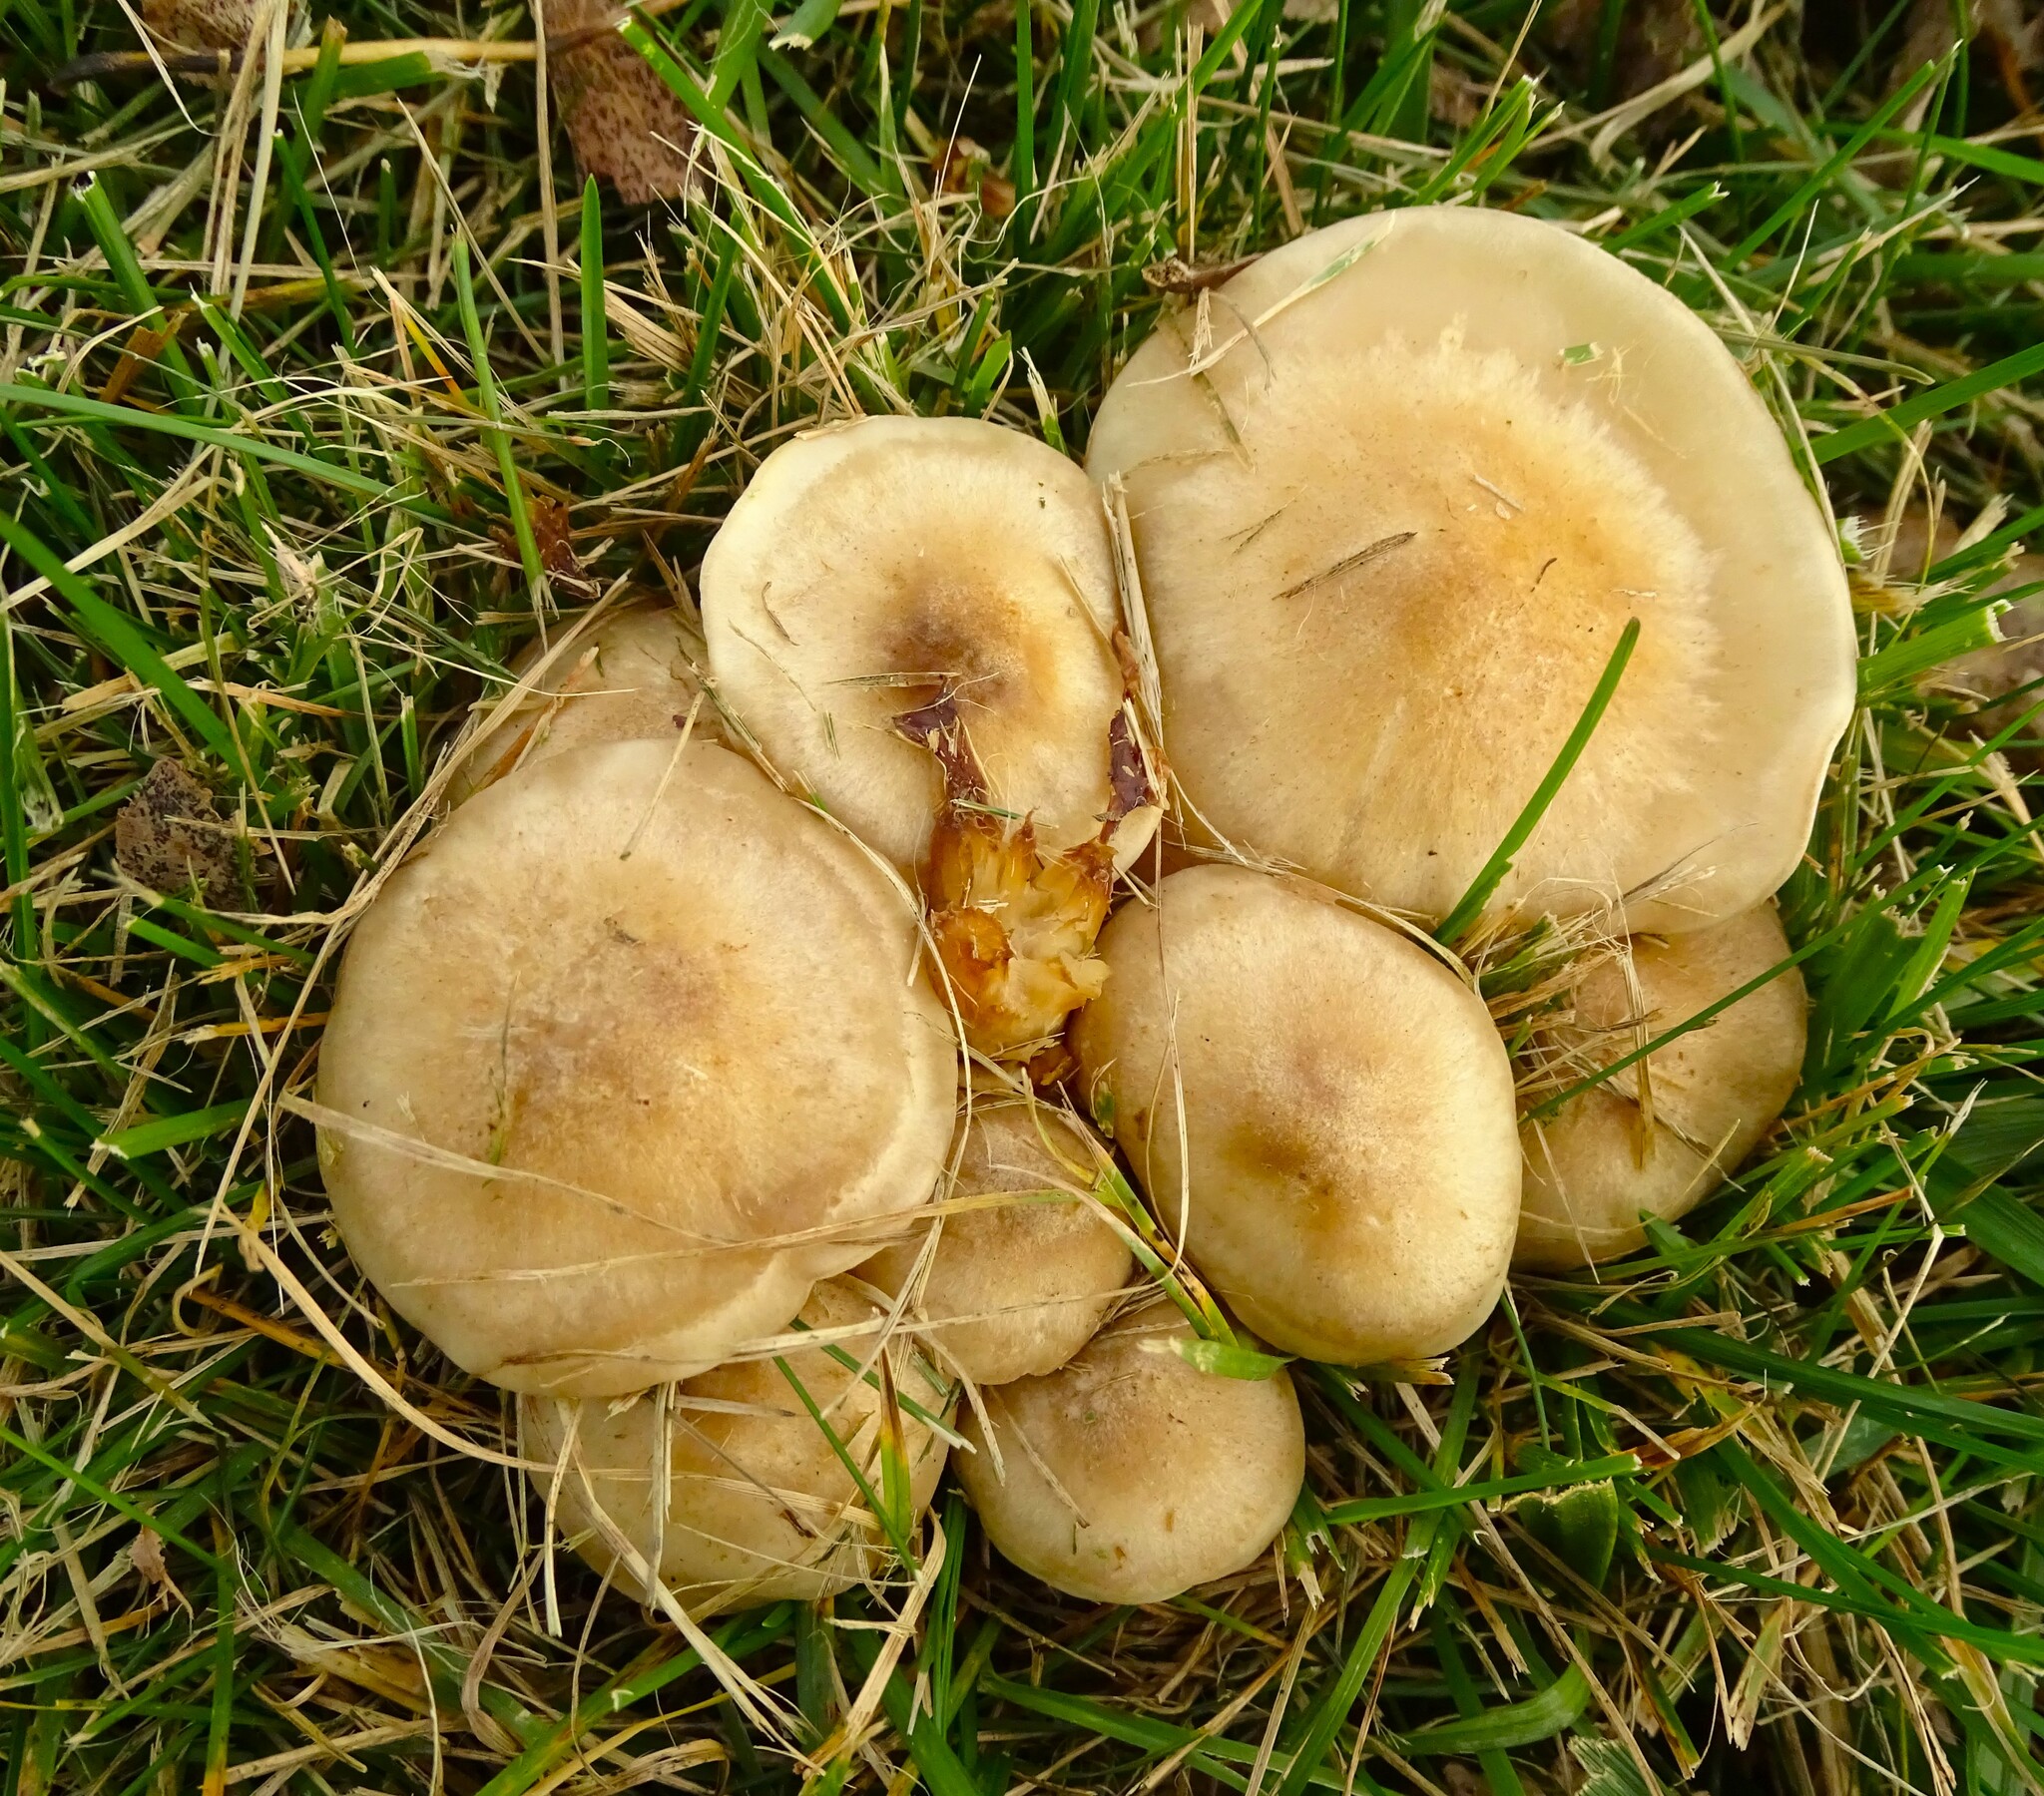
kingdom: Fungi
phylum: Basidiomycota
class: Agaricomycetes
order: Agaricales
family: Lyophyllaceae
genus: Lyophyllum
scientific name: Lyophyllum decastes
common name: Clustered domecap
